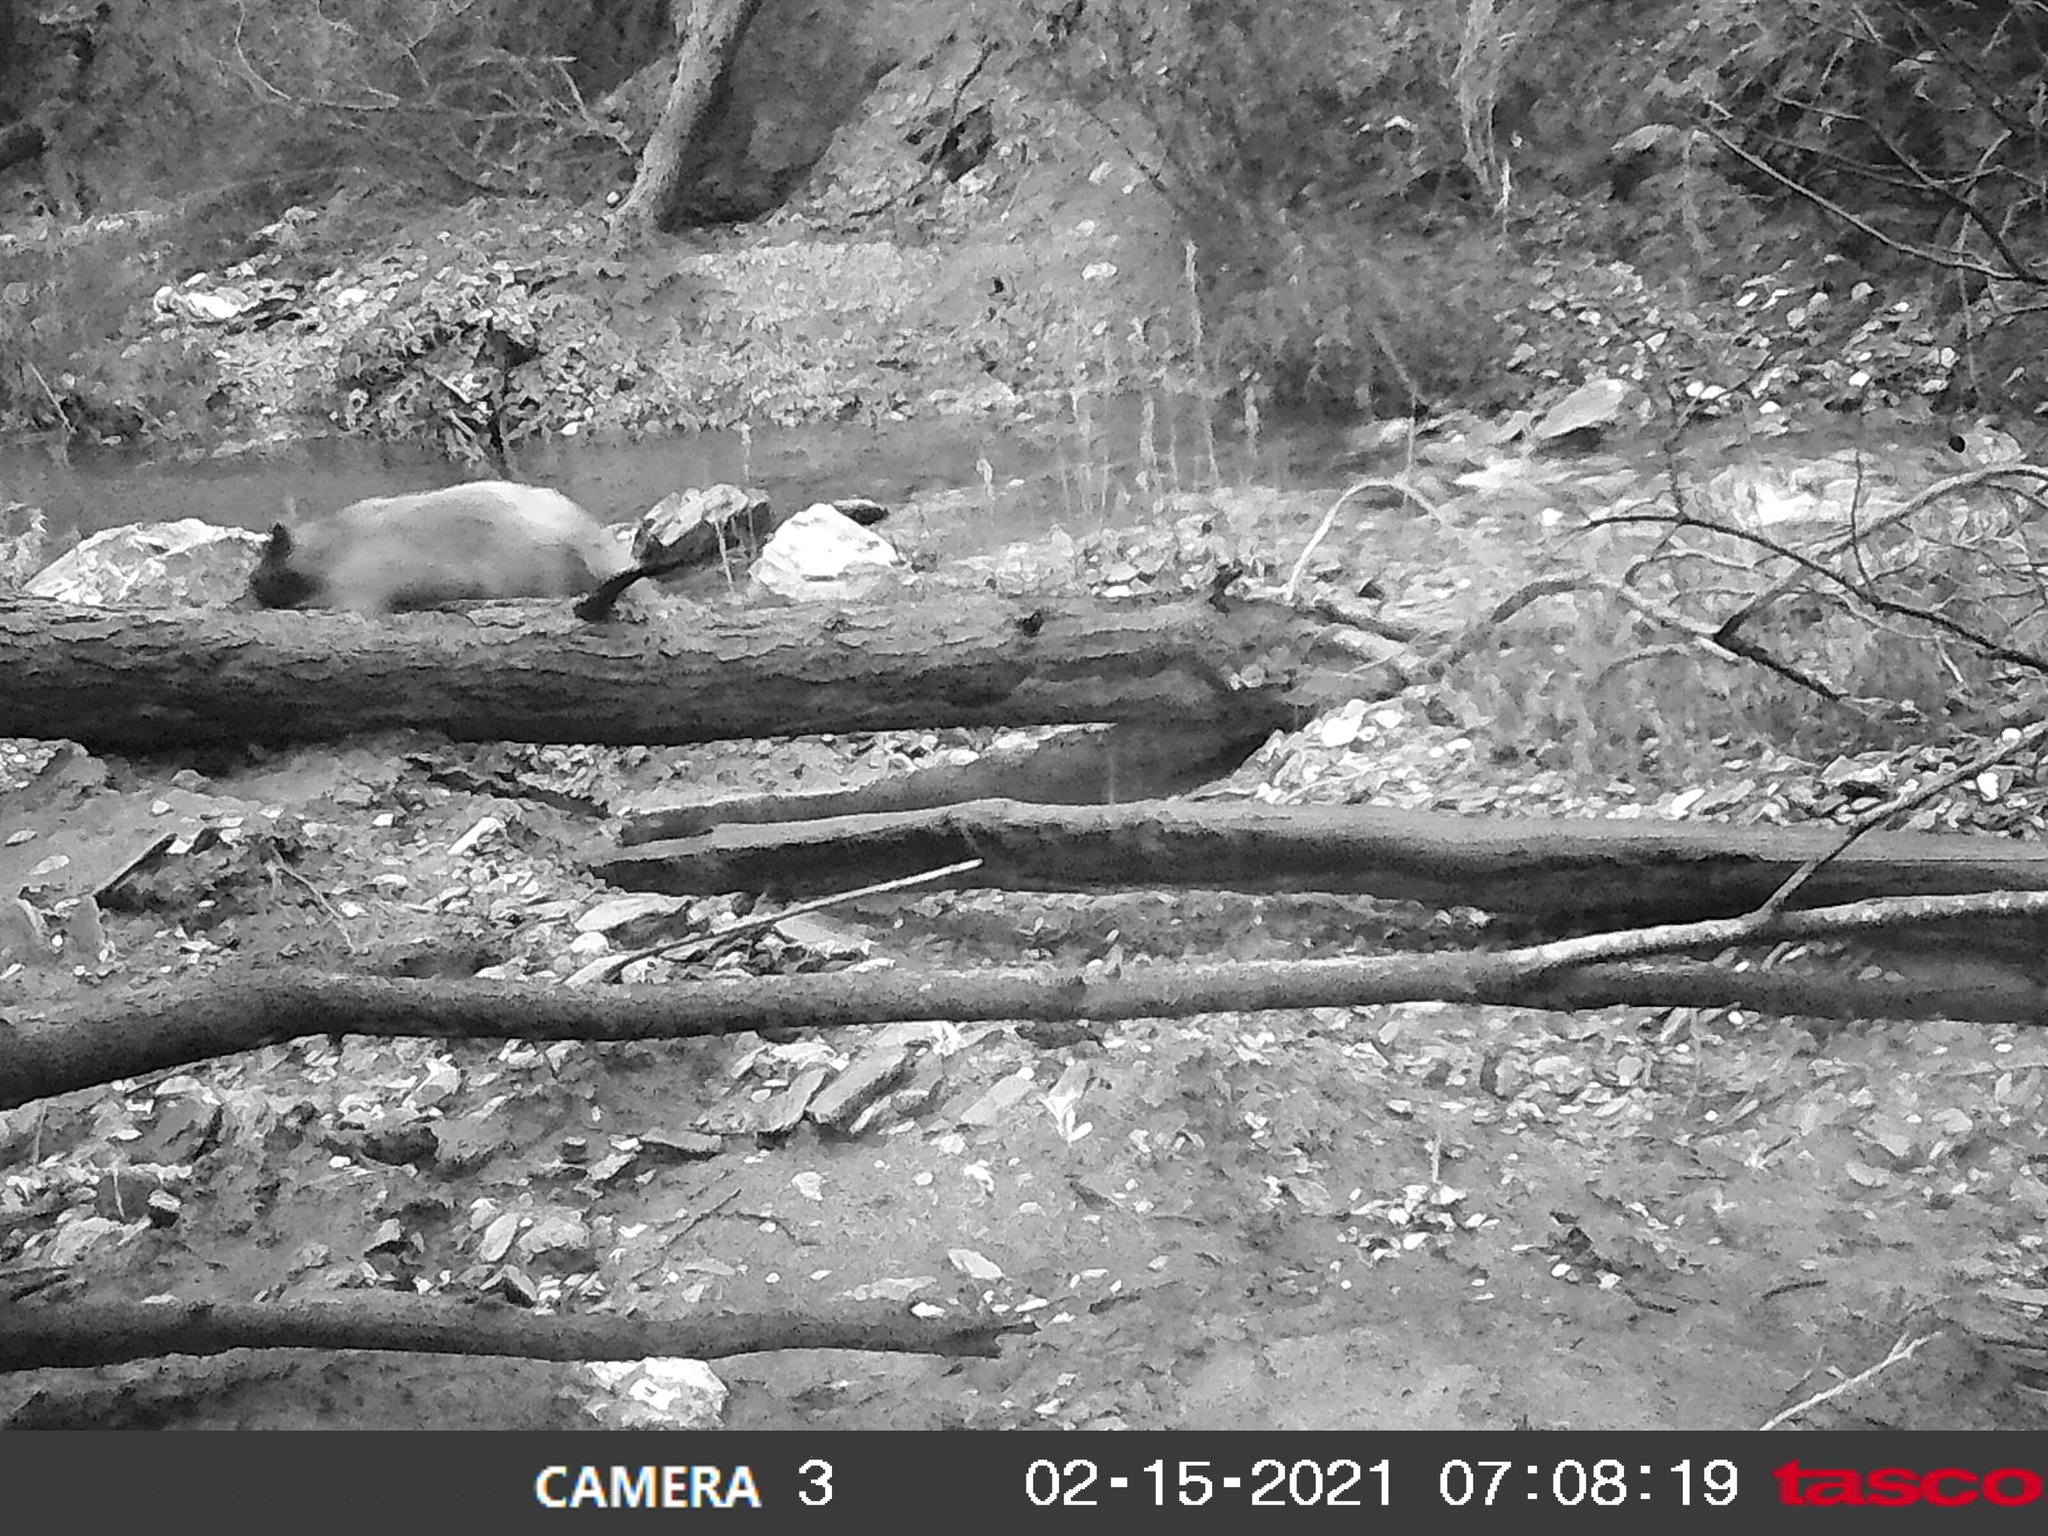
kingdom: Animalia
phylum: Chordata
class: Mammalia
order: Carnivora
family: Ursidae
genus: Ursus
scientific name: Ursus americanus
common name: American black bear
